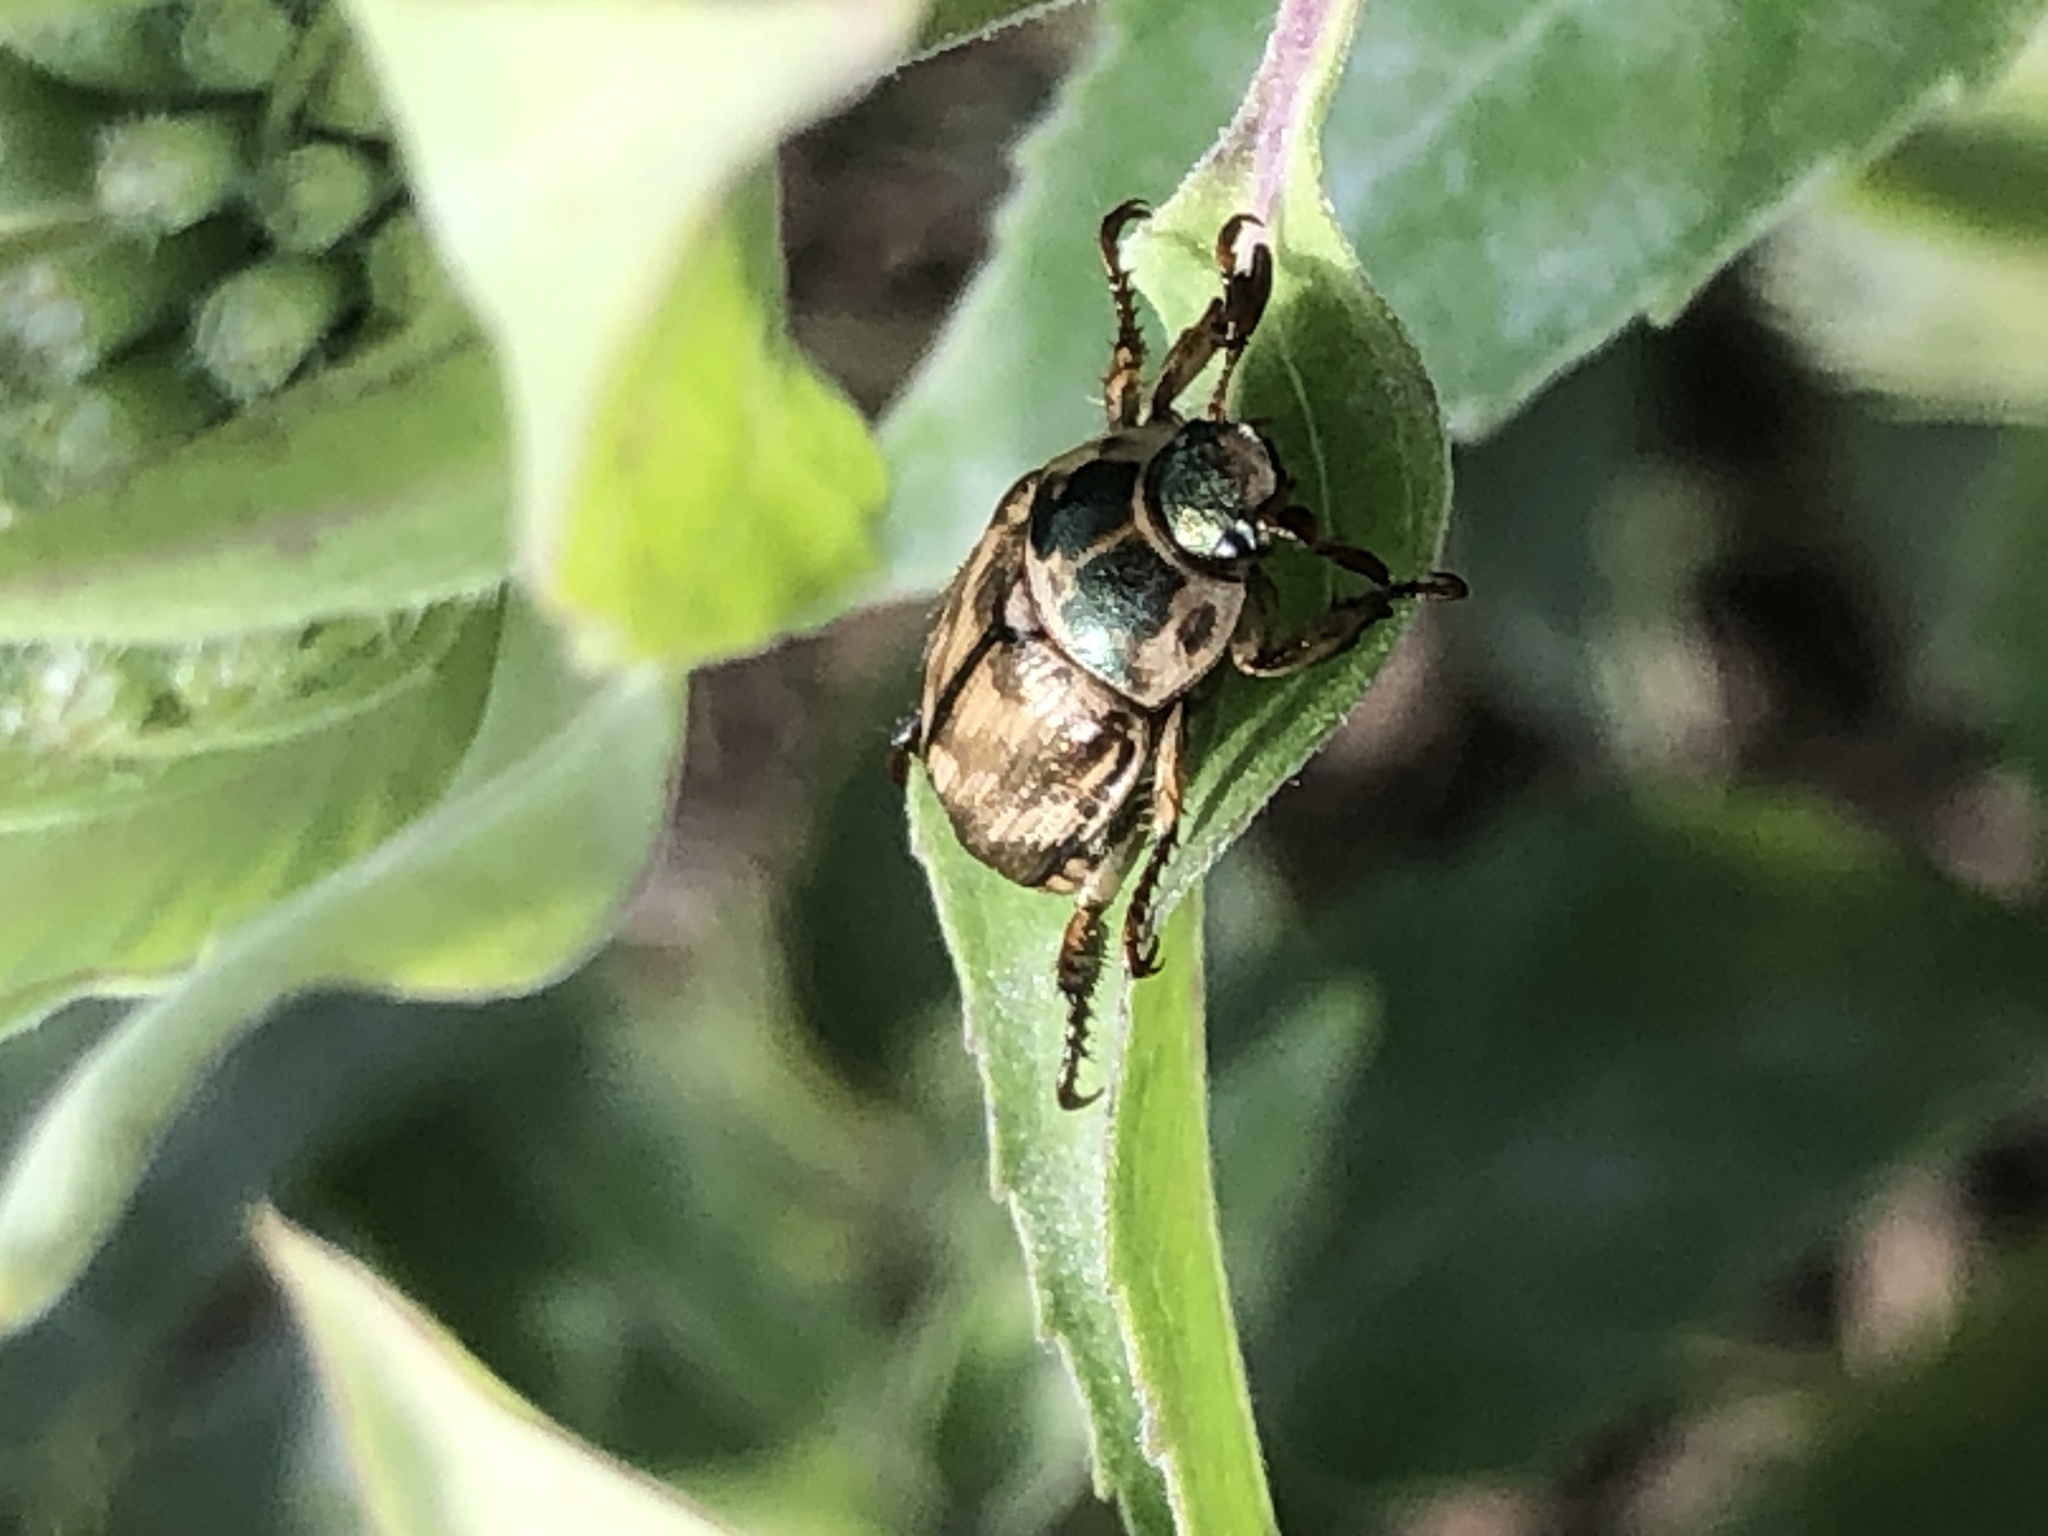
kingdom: Animalia
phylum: Arthropoda
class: Insecta
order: Coleoptera
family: Scarabaeidae
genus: Exomala
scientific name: Exomala orientalis
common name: Oriental beetle
